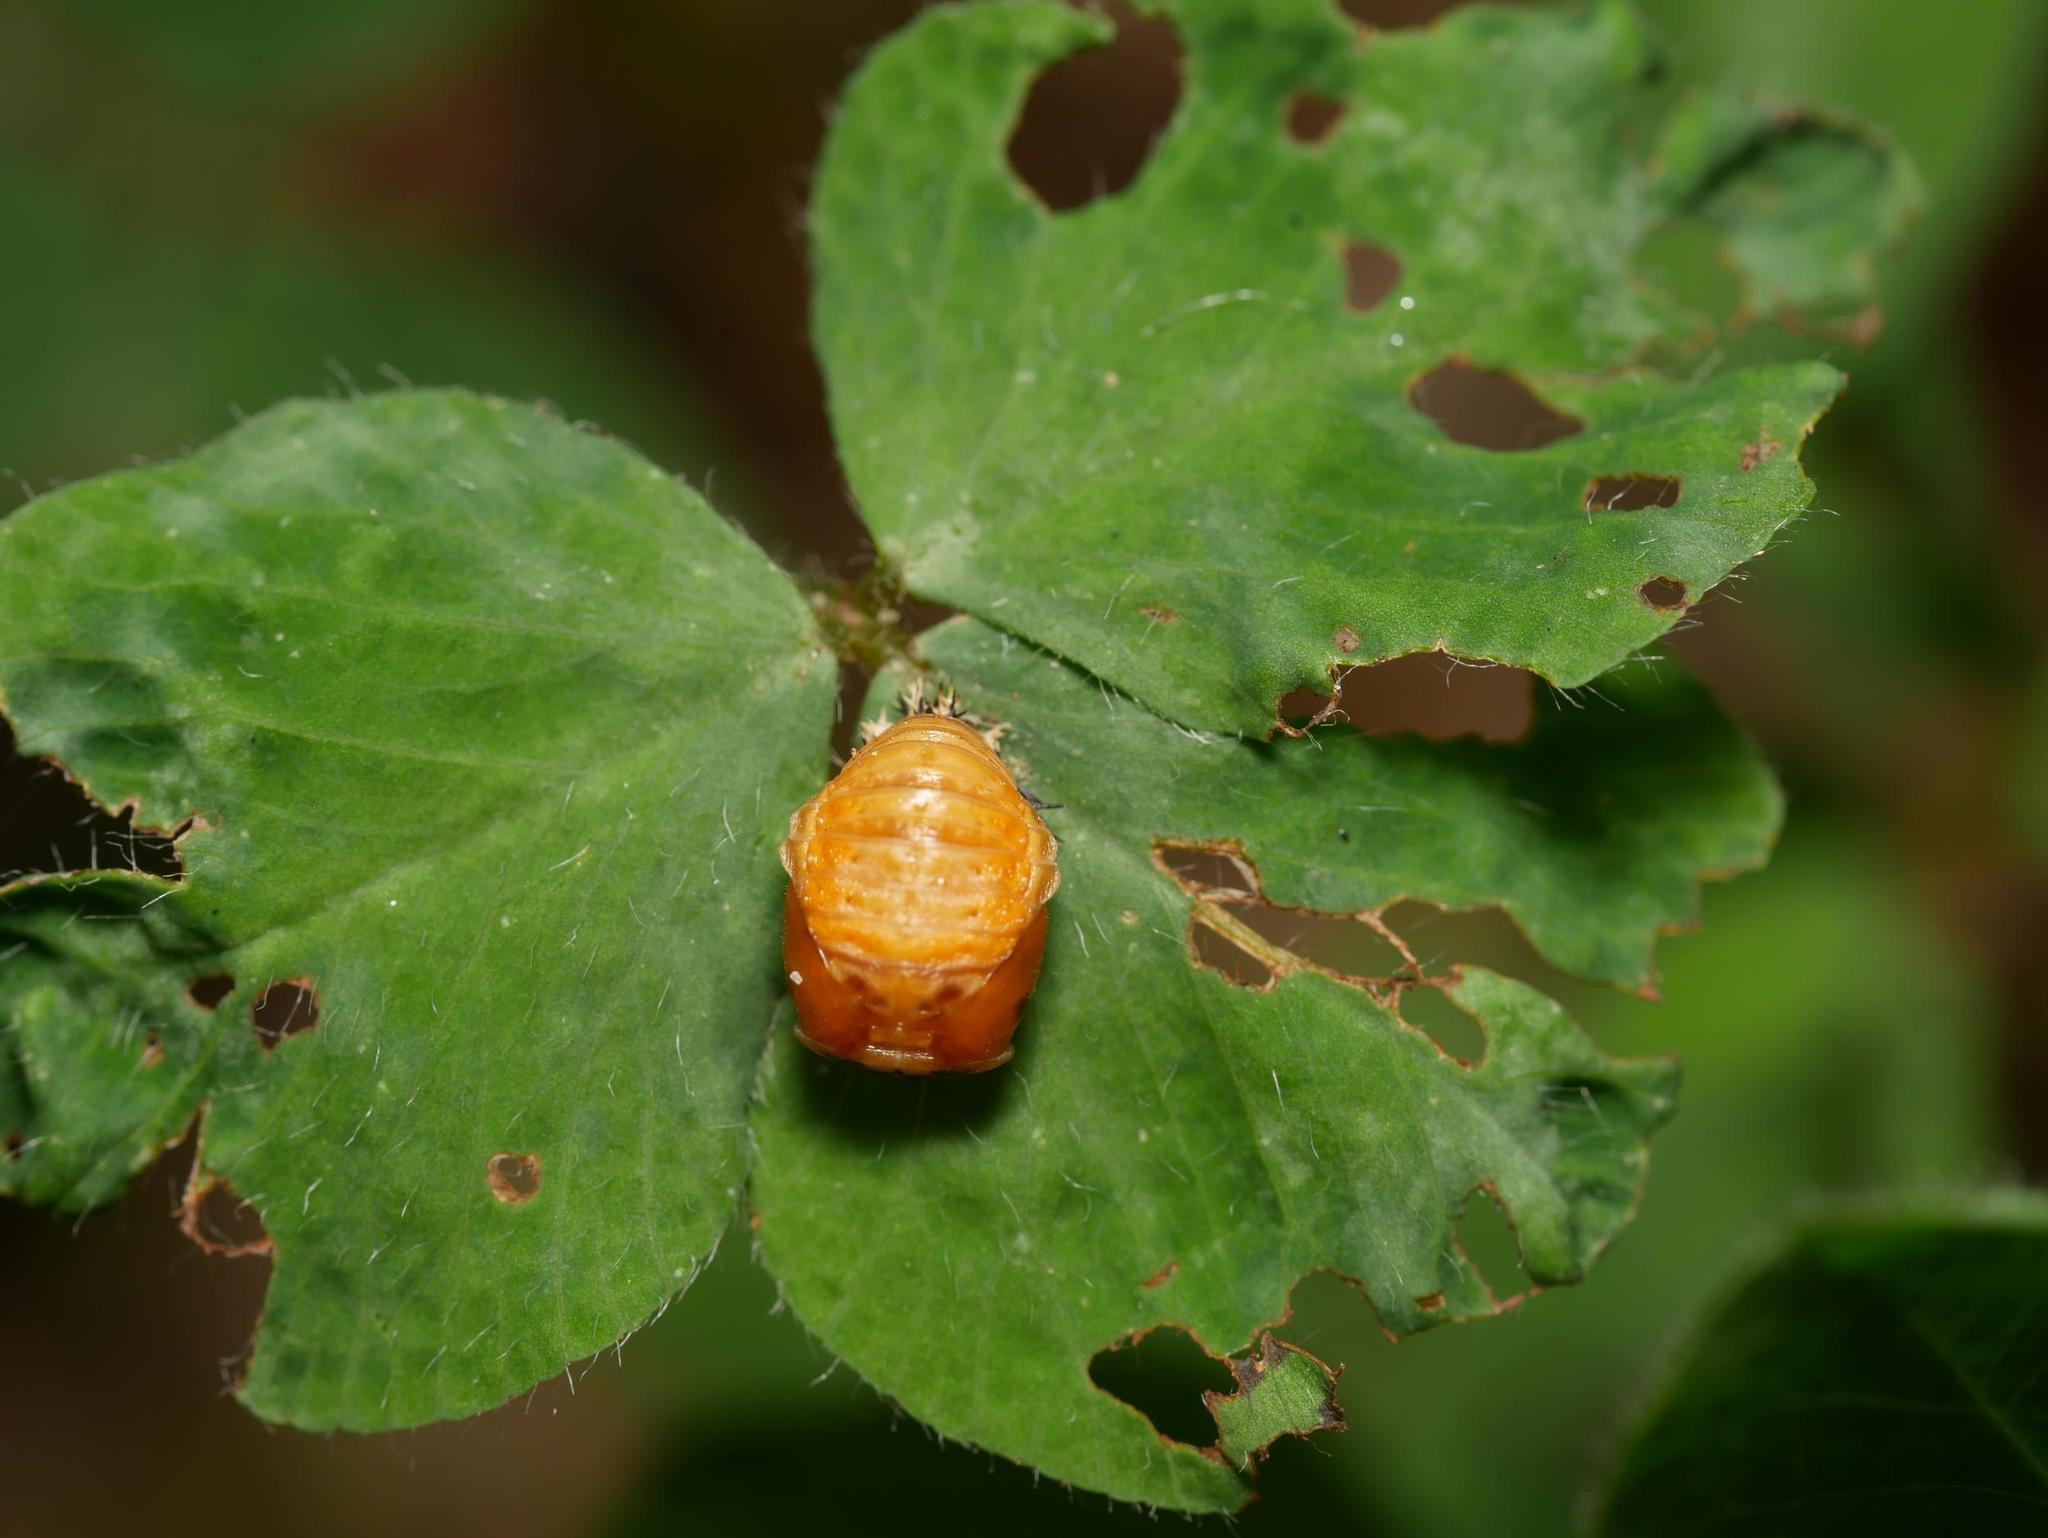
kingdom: Animalia
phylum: Arthropoda
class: Insecta
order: Coleoptera
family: Coccinellidae
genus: Harmonia
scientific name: Harmonia axyridis
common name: Harlequin ladybird
